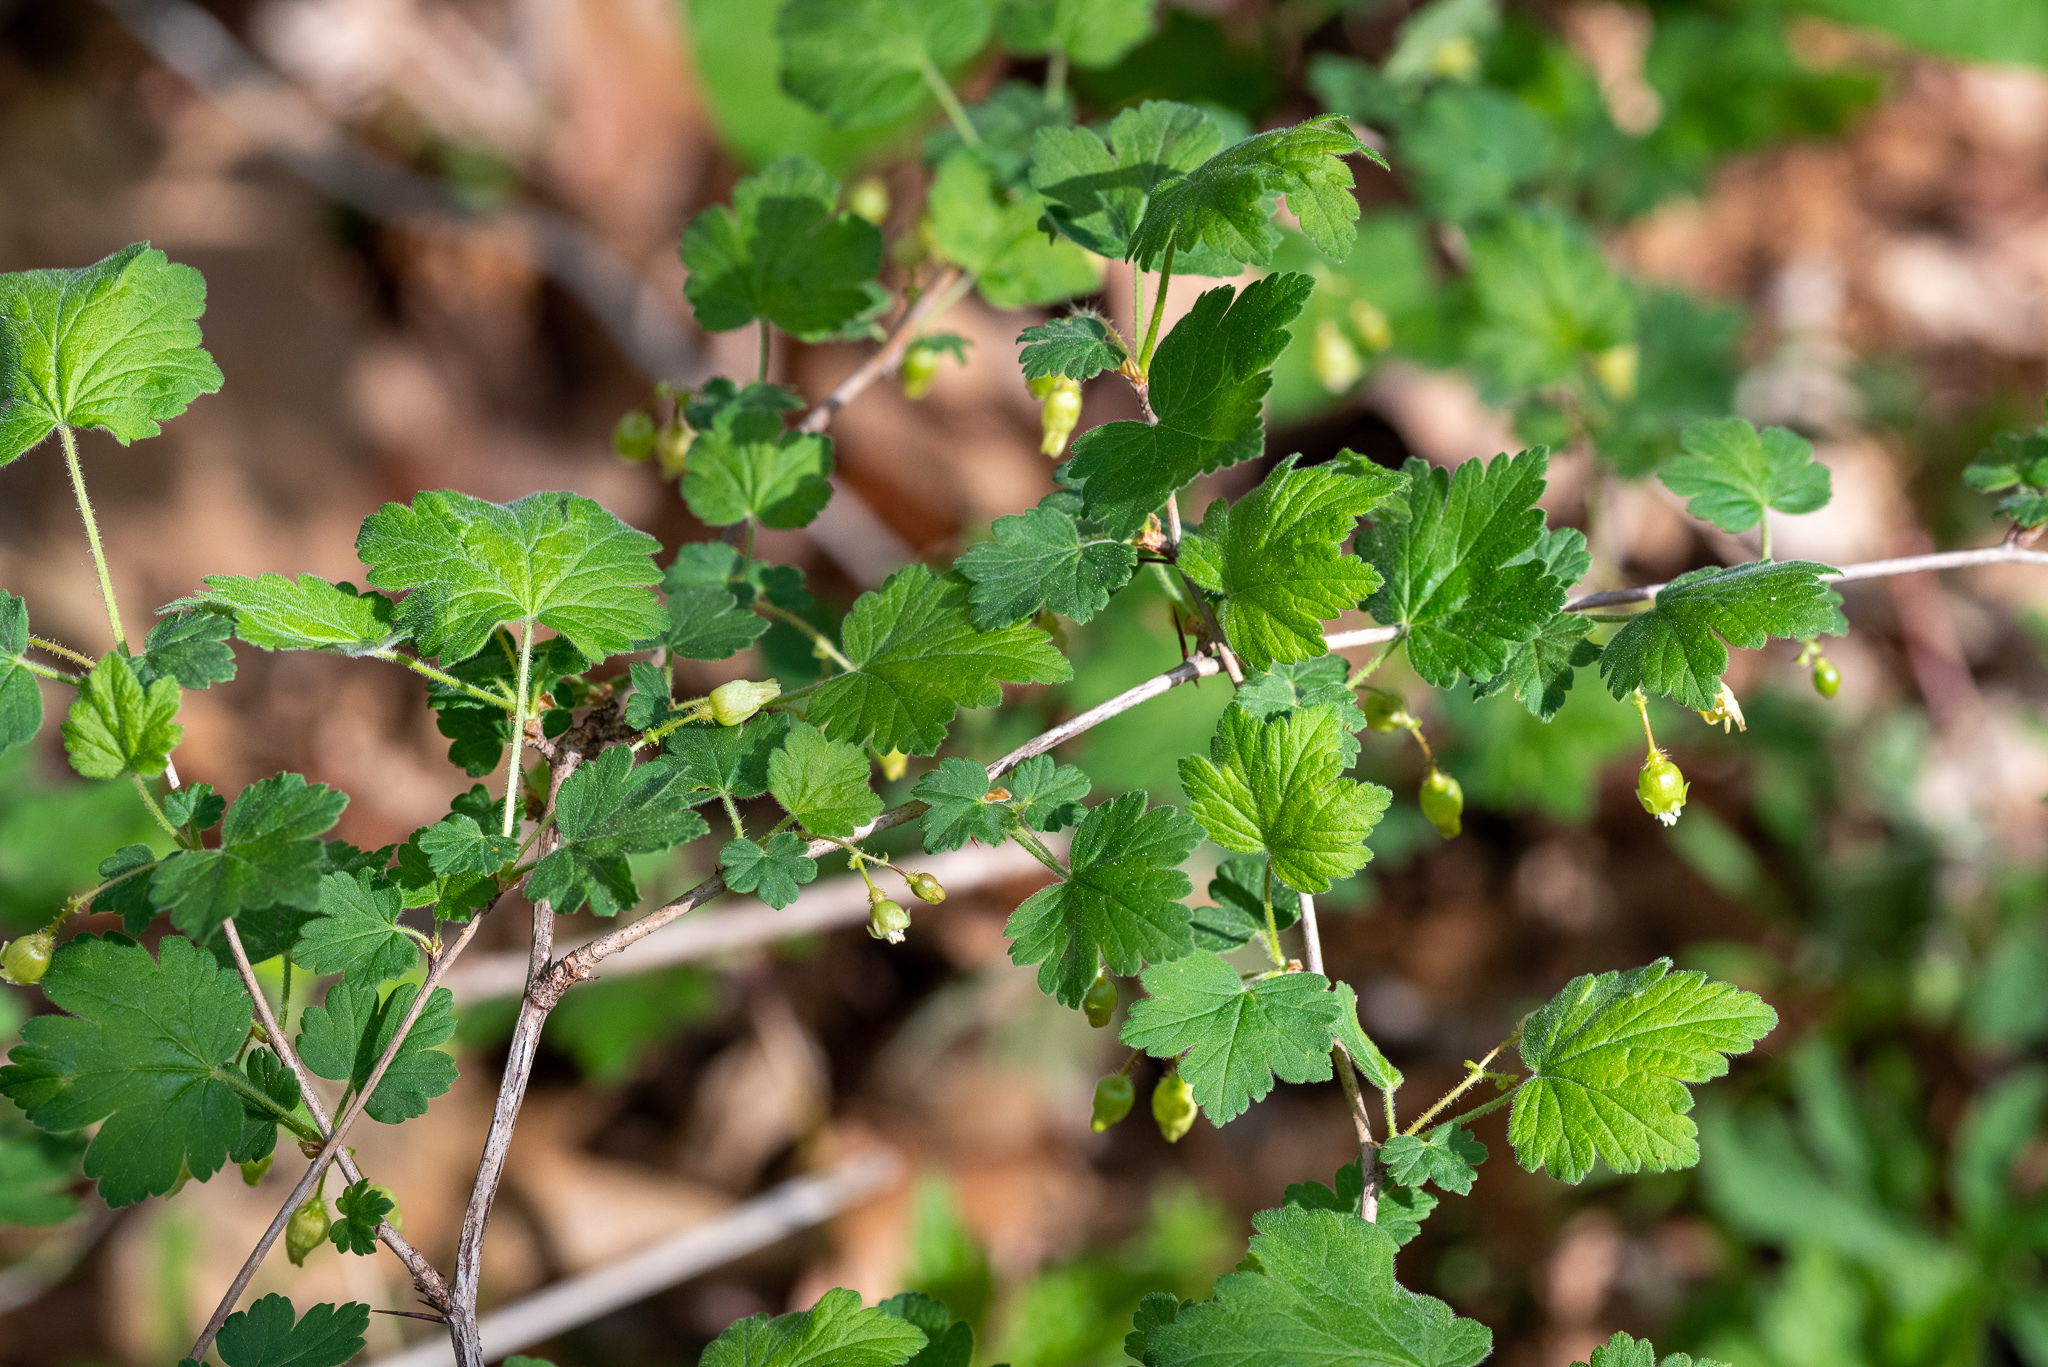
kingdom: Plantae
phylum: Tracheophyta
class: Magnoliopsida
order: Saxifragales
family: Grossulariaceae
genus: Ribes
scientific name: Ribes cynosbati
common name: American gooseberry
